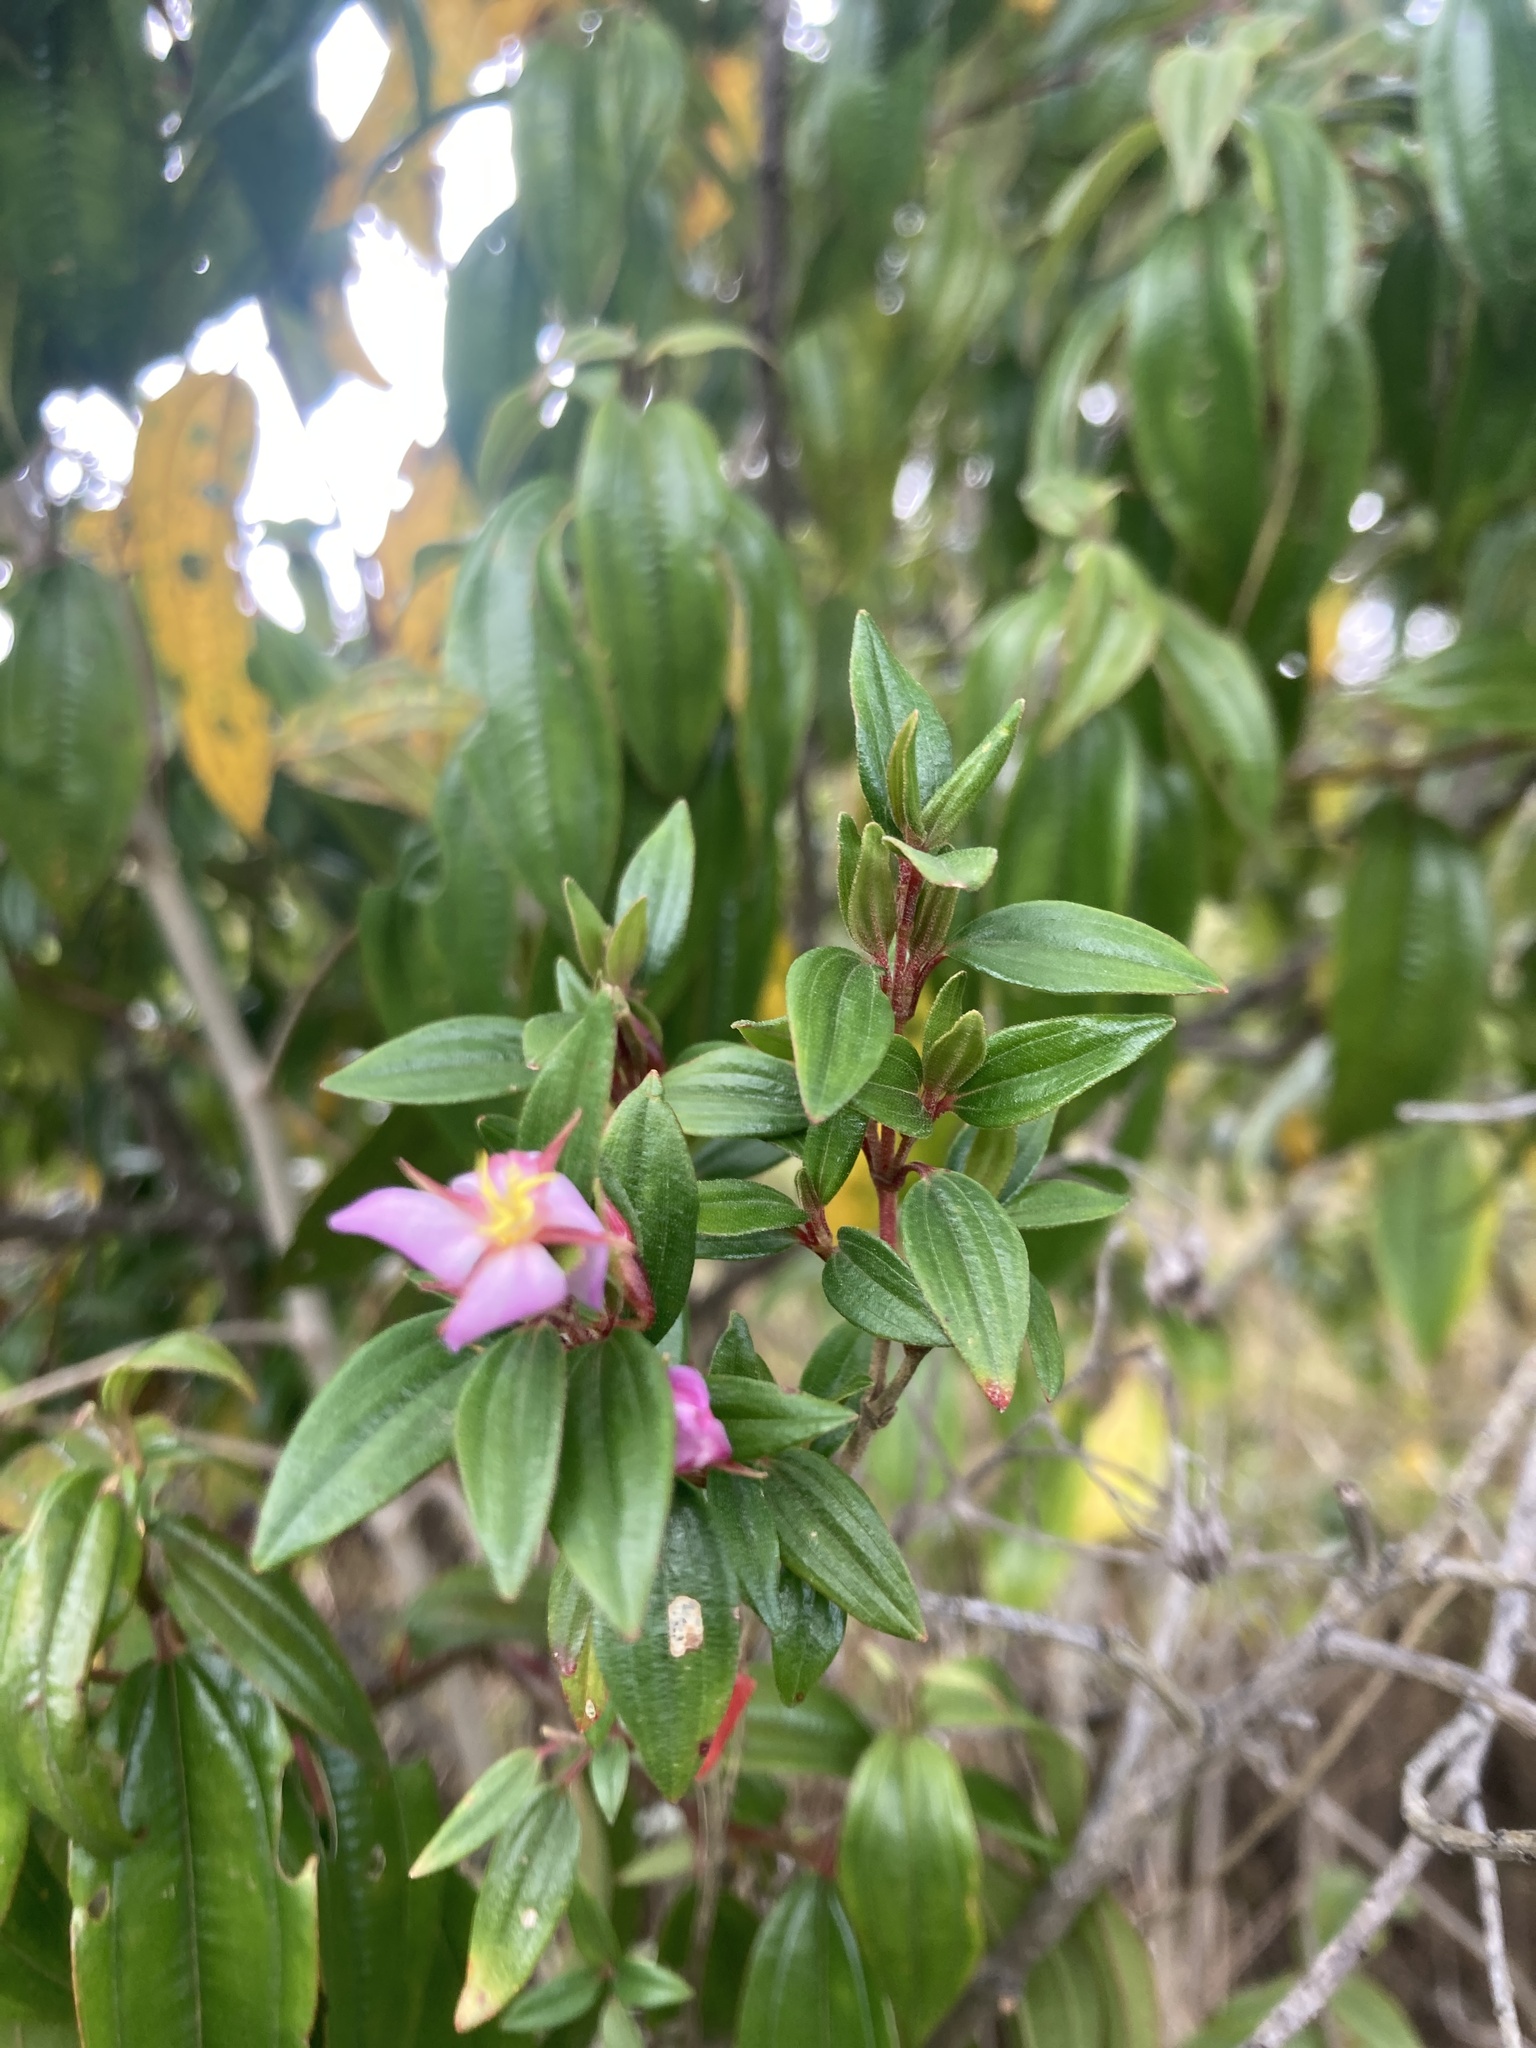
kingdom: Plantae
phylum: Tracheophyta
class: Magnoliopsida
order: Myrtales
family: Melastomataceae
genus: Monochaetum
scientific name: Monochaetum myrtoideum
